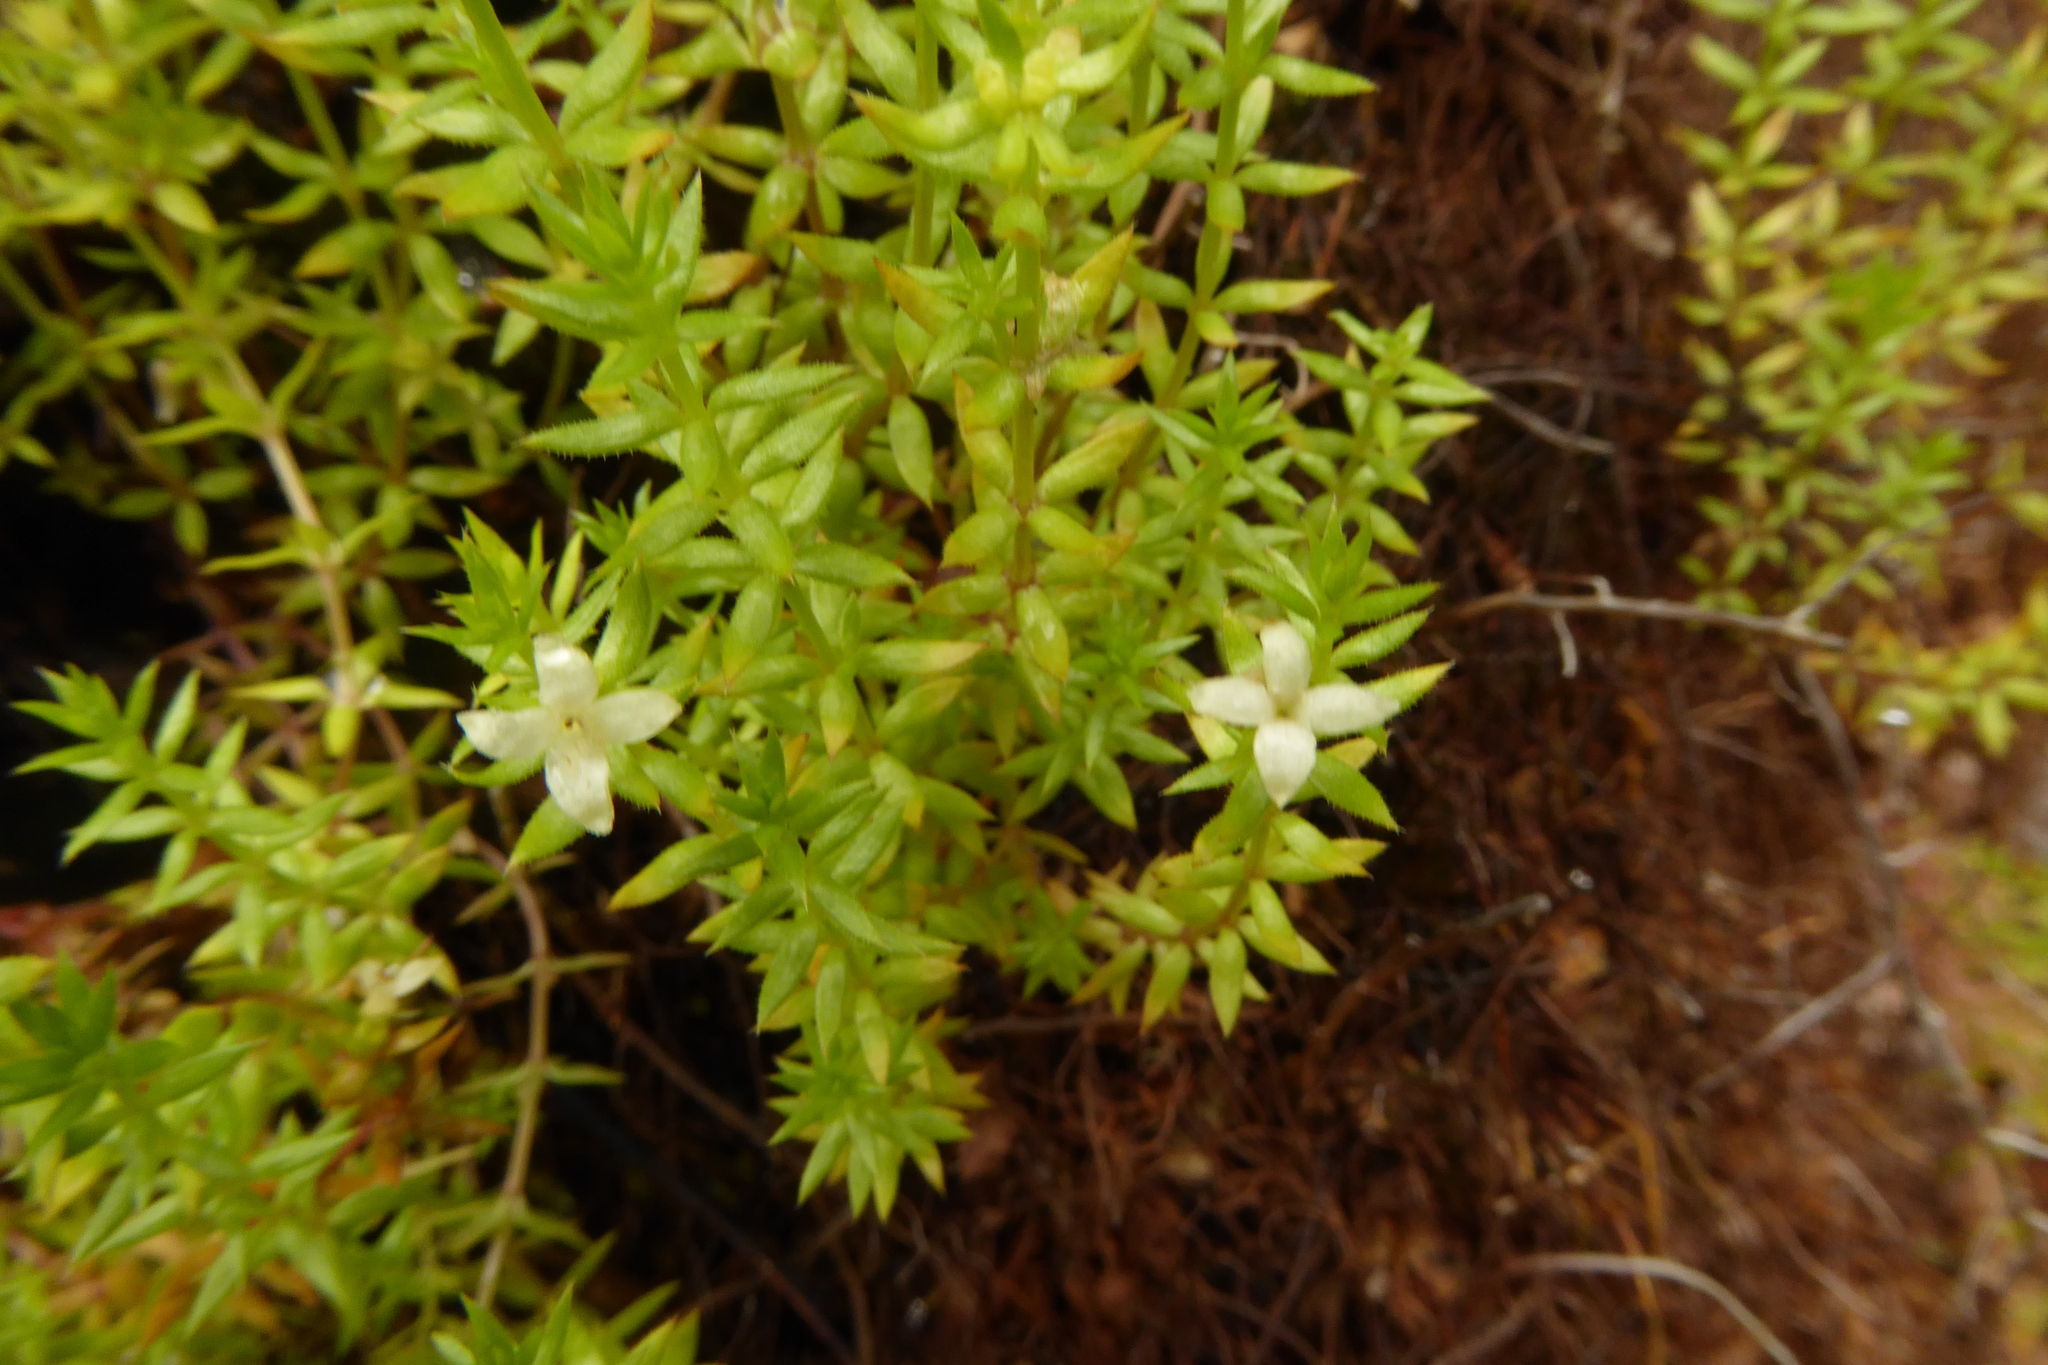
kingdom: Plantae
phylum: Tracheophyta
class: Magnoliopsida
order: Gentianales
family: Rubiaceae
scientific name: Rubiaceae
